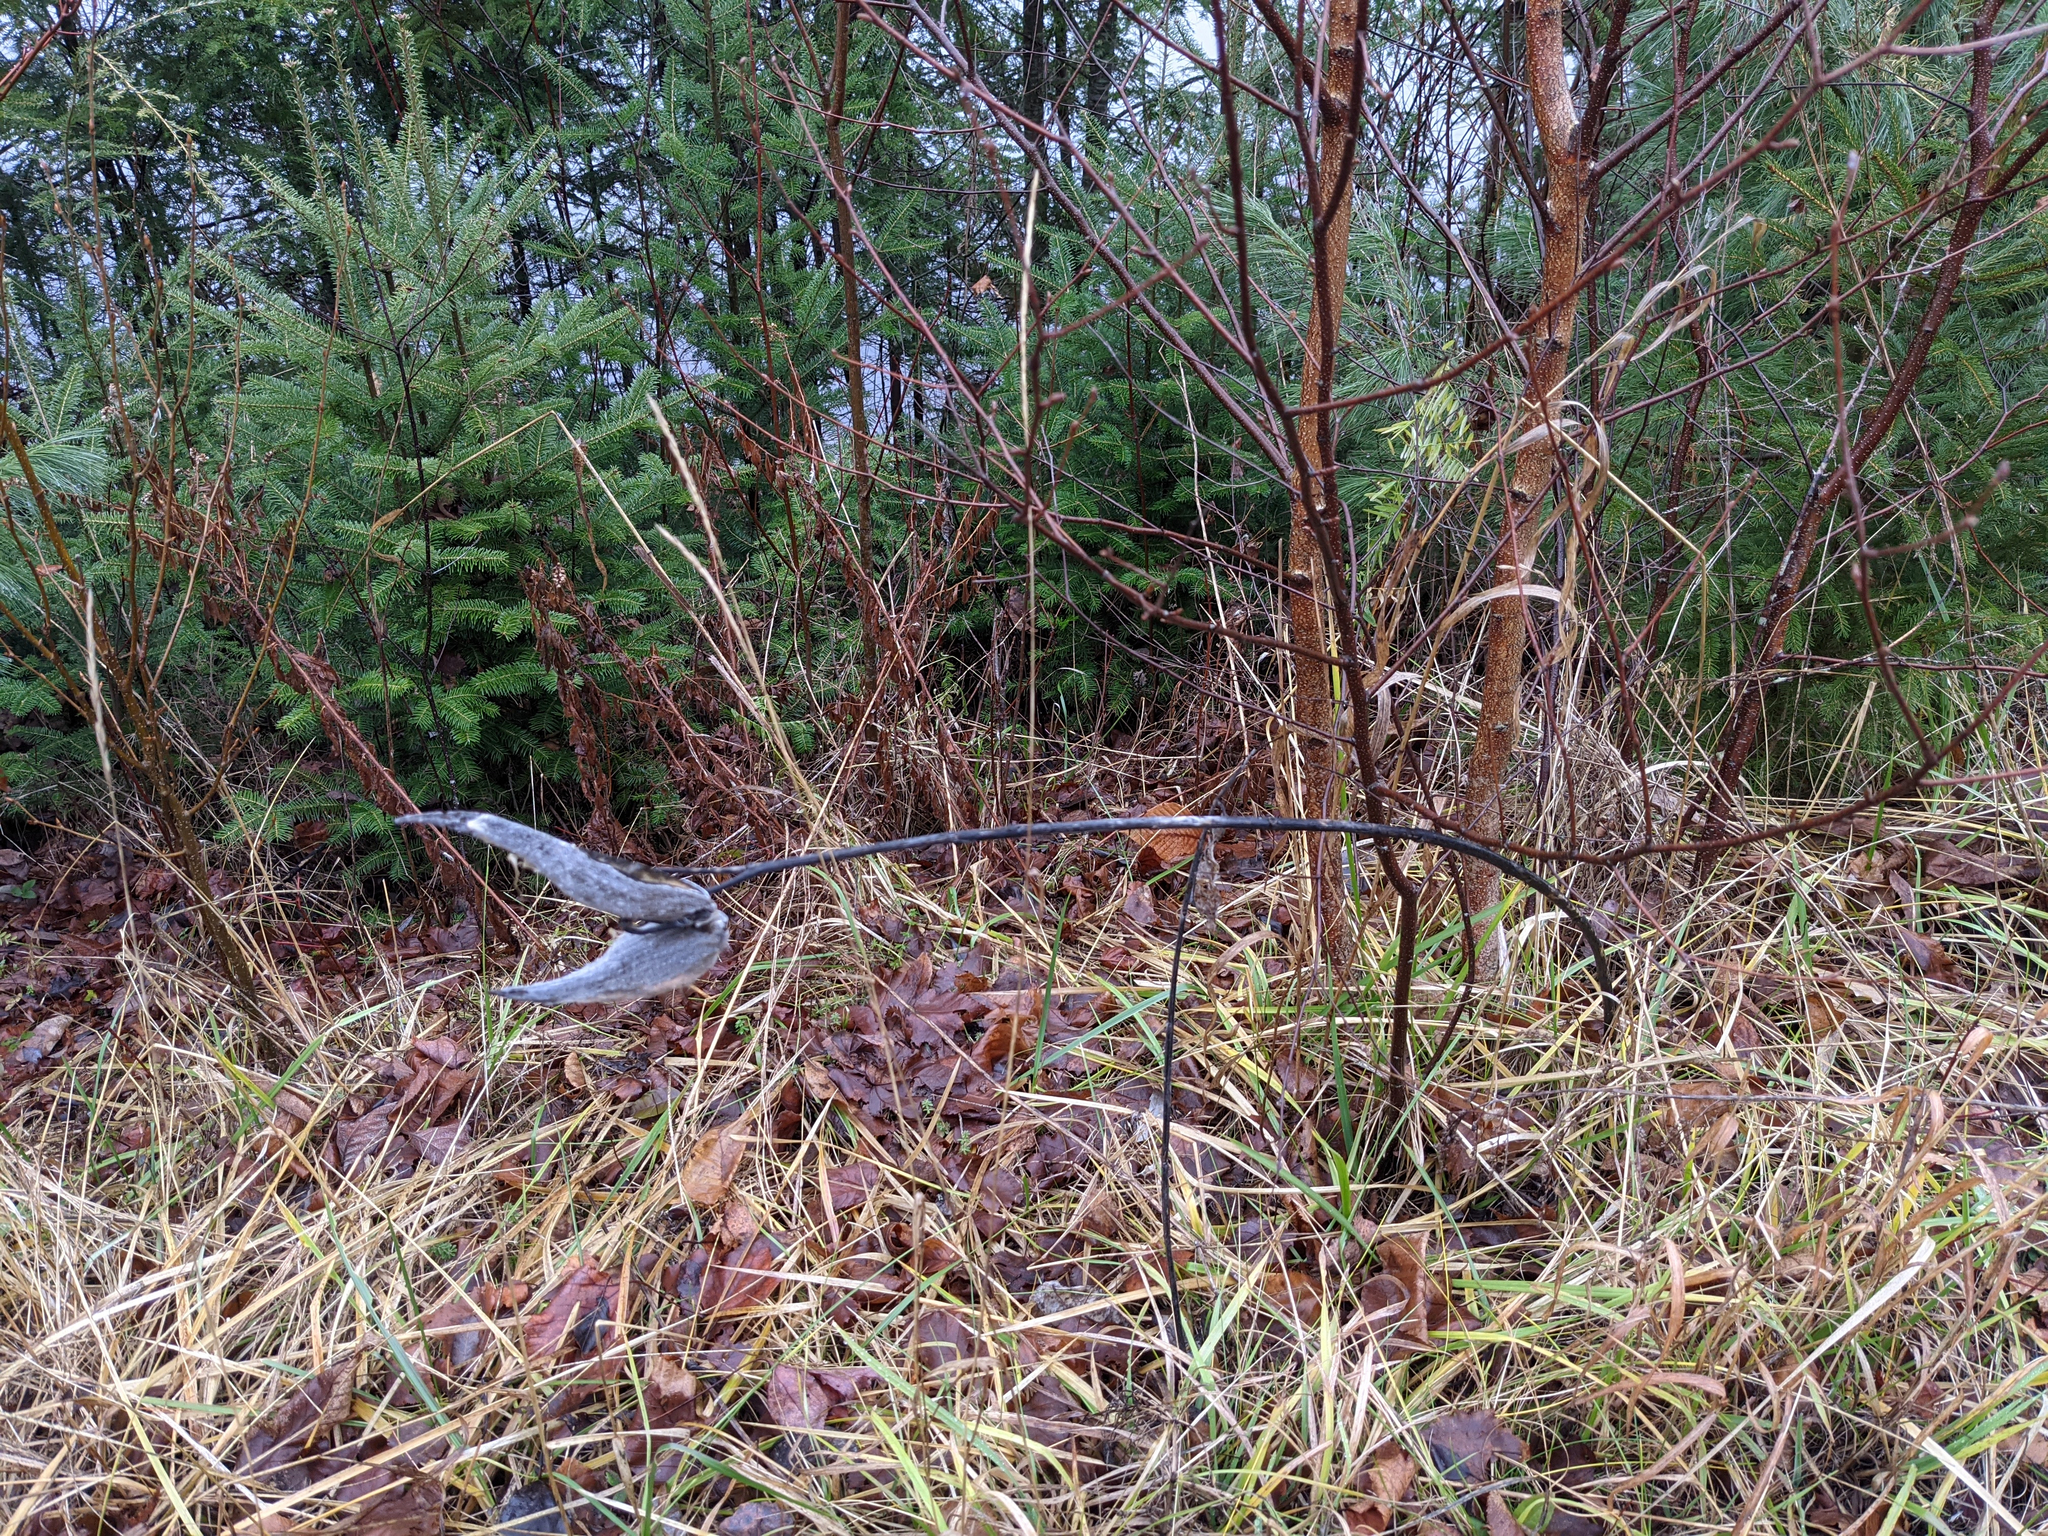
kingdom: Plantae
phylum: Tracheophyta
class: Magnoliopsida
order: Gentianales
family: Apocynaceae
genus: Asclepias
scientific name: Asclepias syriaca
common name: Common milkweed
